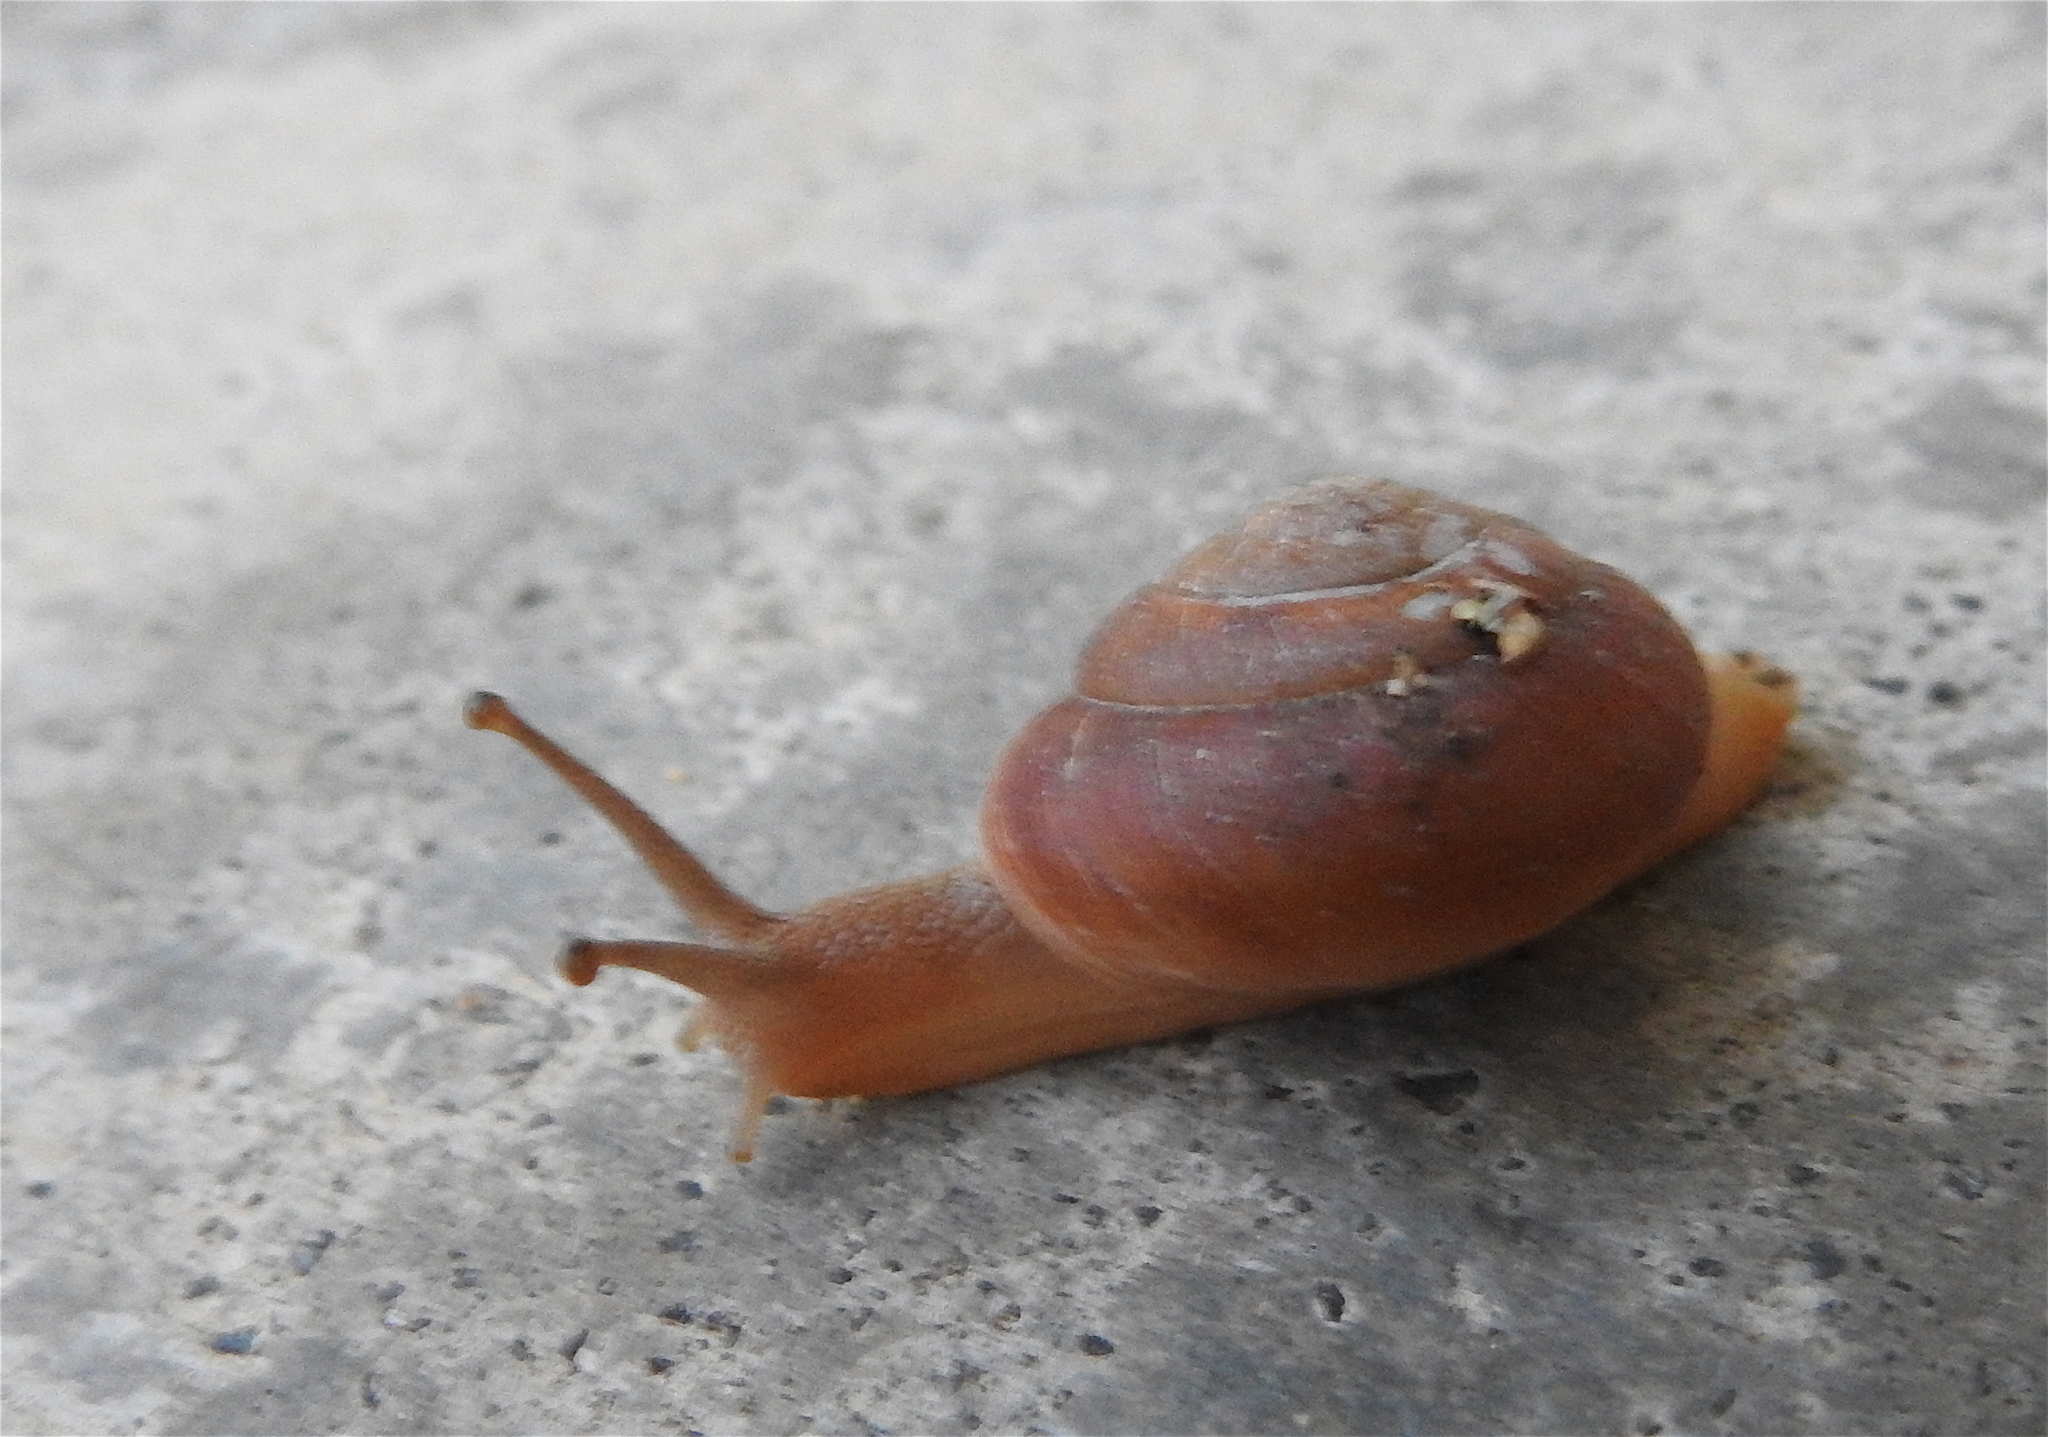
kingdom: Animalia
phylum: Mollusca
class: Gastropoda
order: Stylommatophora
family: Dyakiidae
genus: Quantula
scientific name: Quantula striata
